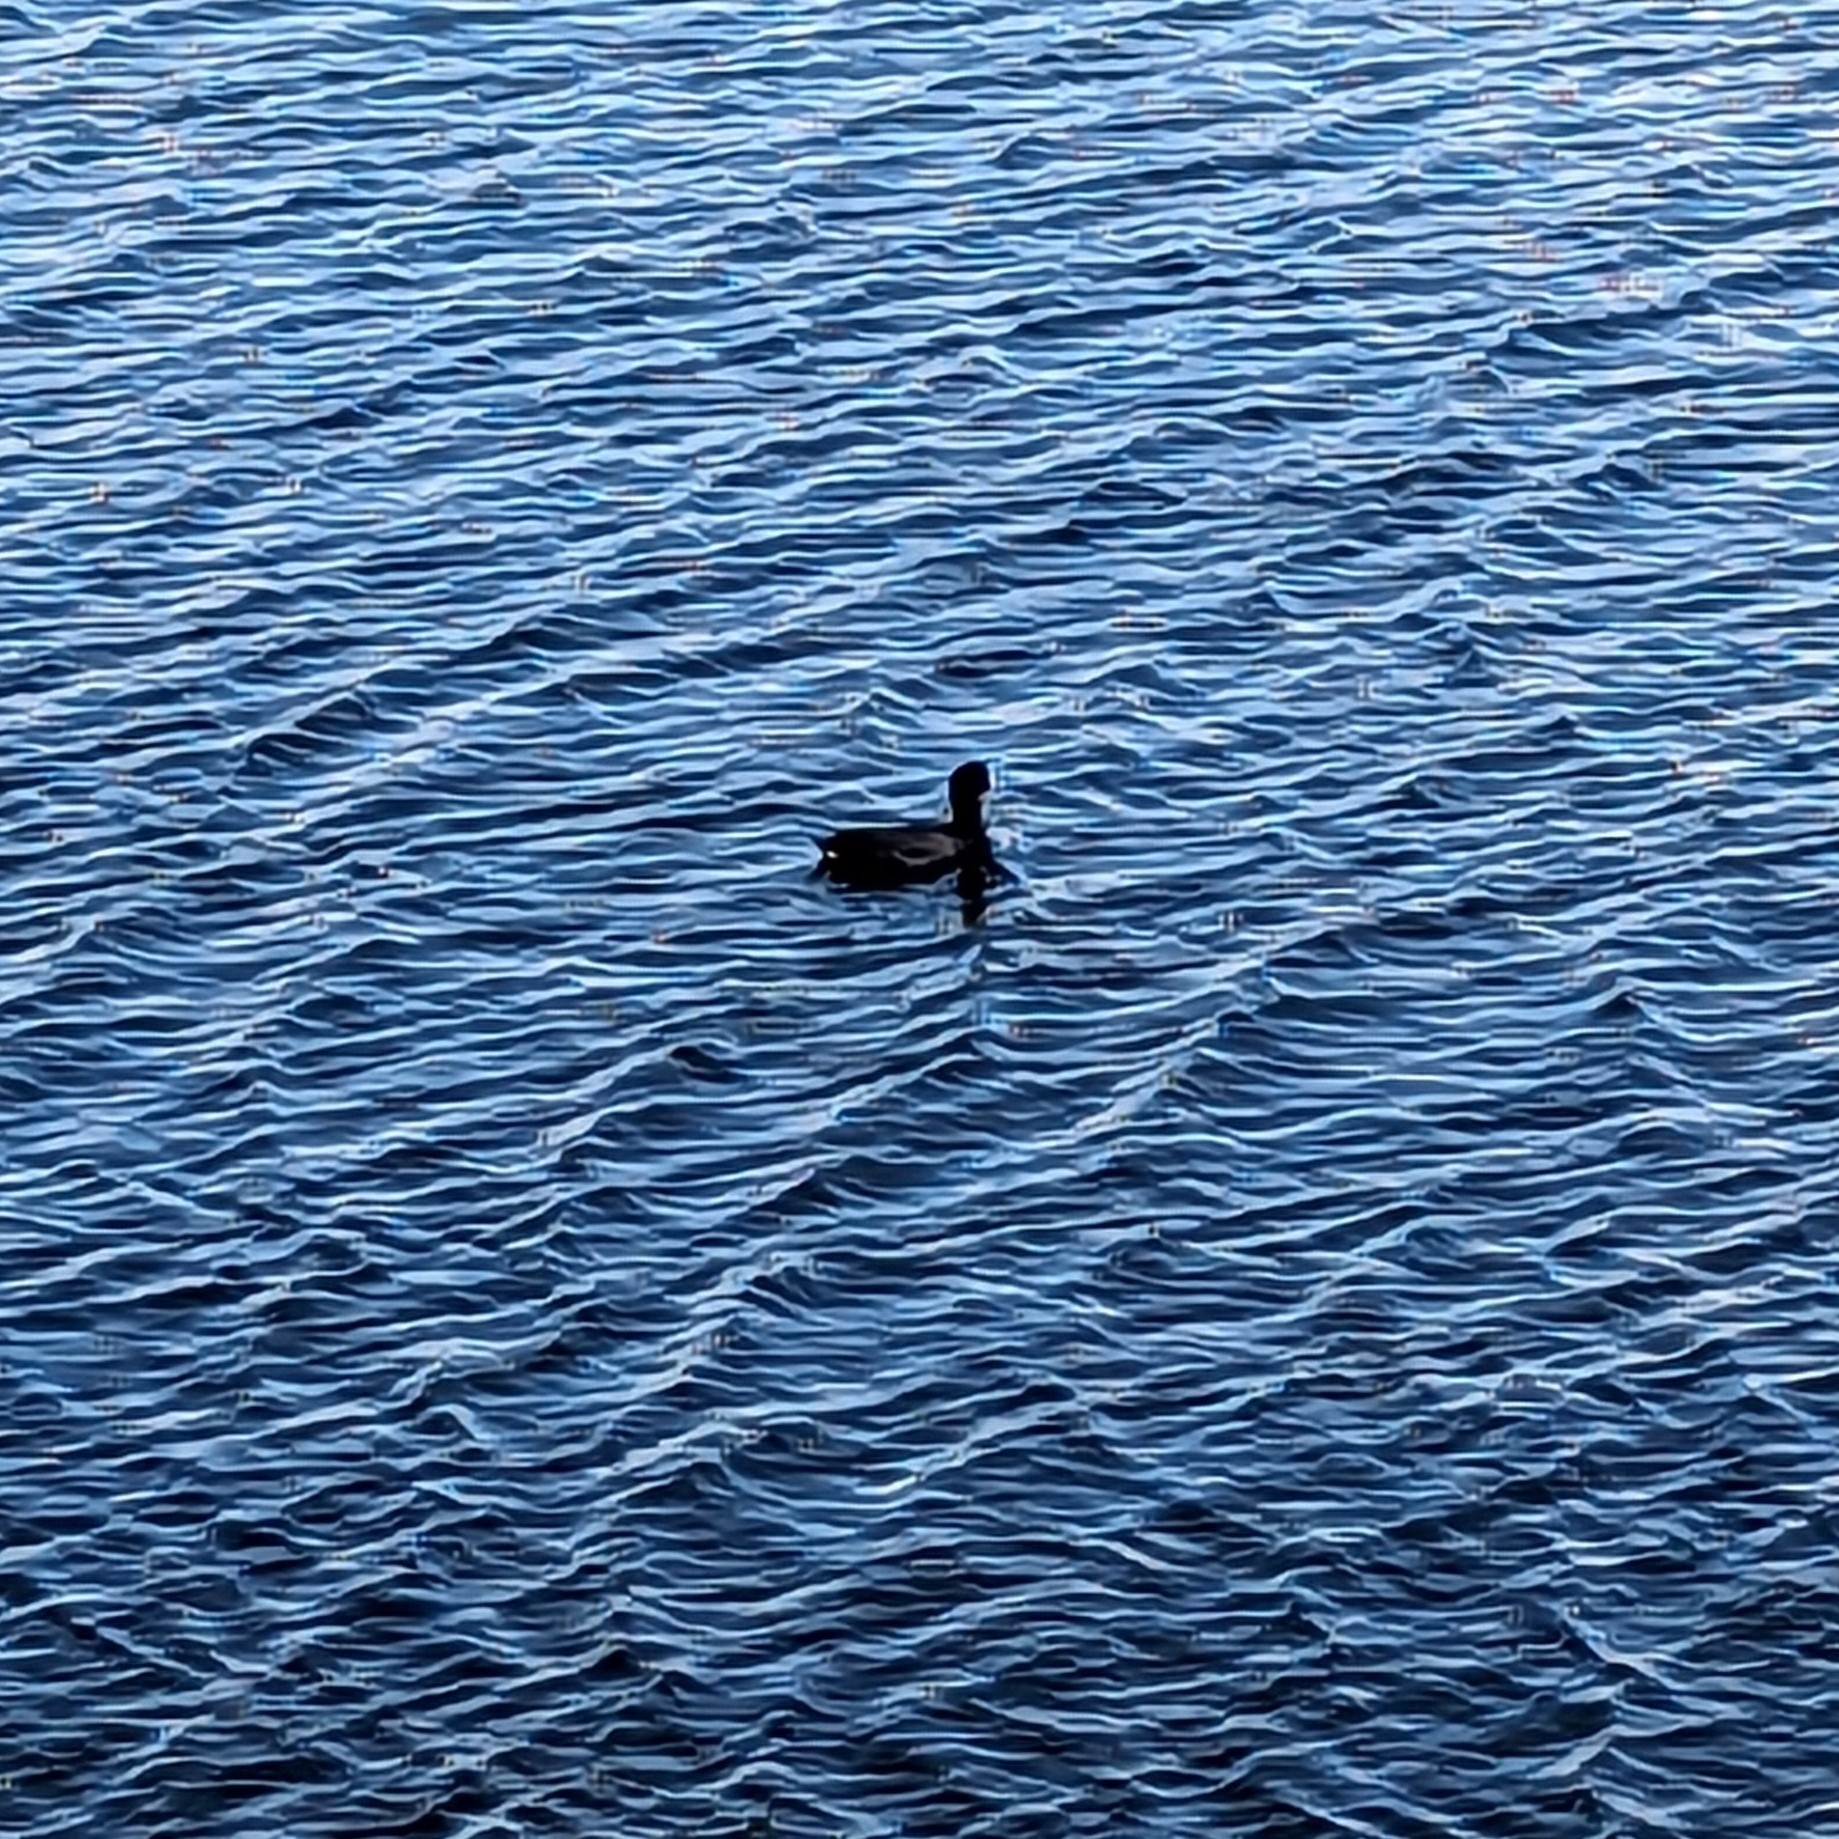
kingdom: Animalia
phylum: Chordata
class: Aves
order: Gruiformes
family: Rallidae
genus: Fulica
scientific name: Fulica americana
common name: American coot
